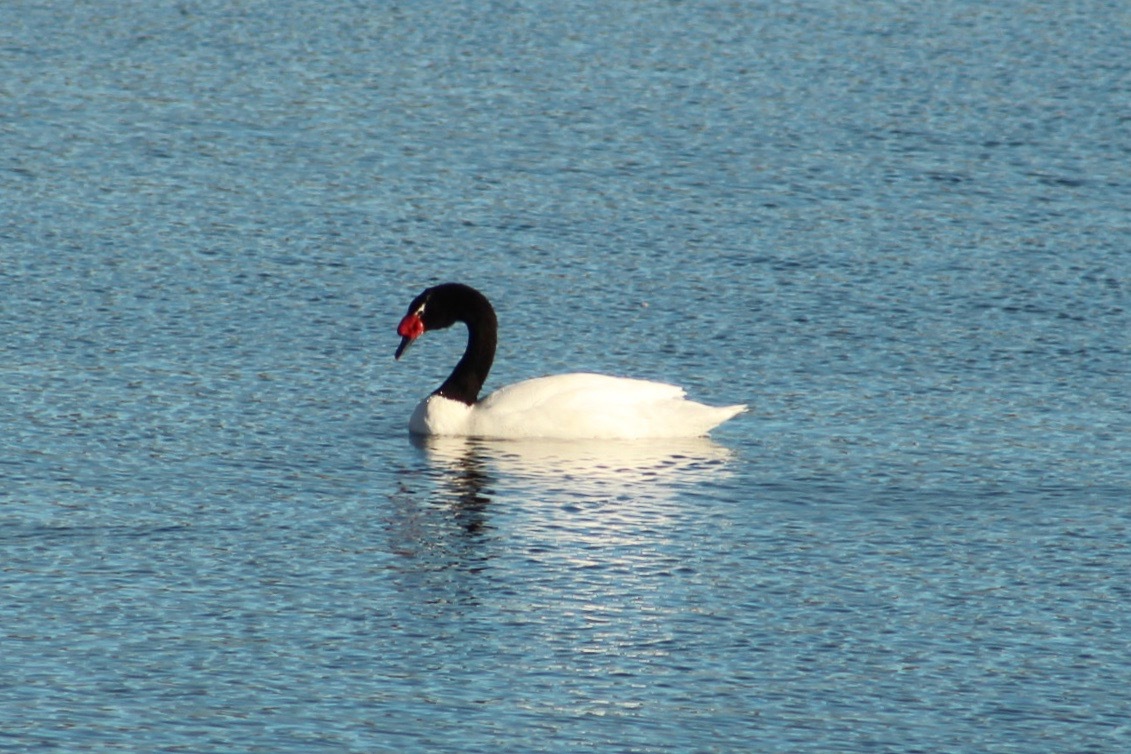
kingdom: Animalia
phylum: Chordata
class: Aves
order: Anseriformes
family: Anatidae
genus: Cygnus
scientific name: Cygnus melancoryphus
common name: Black-necked swan
